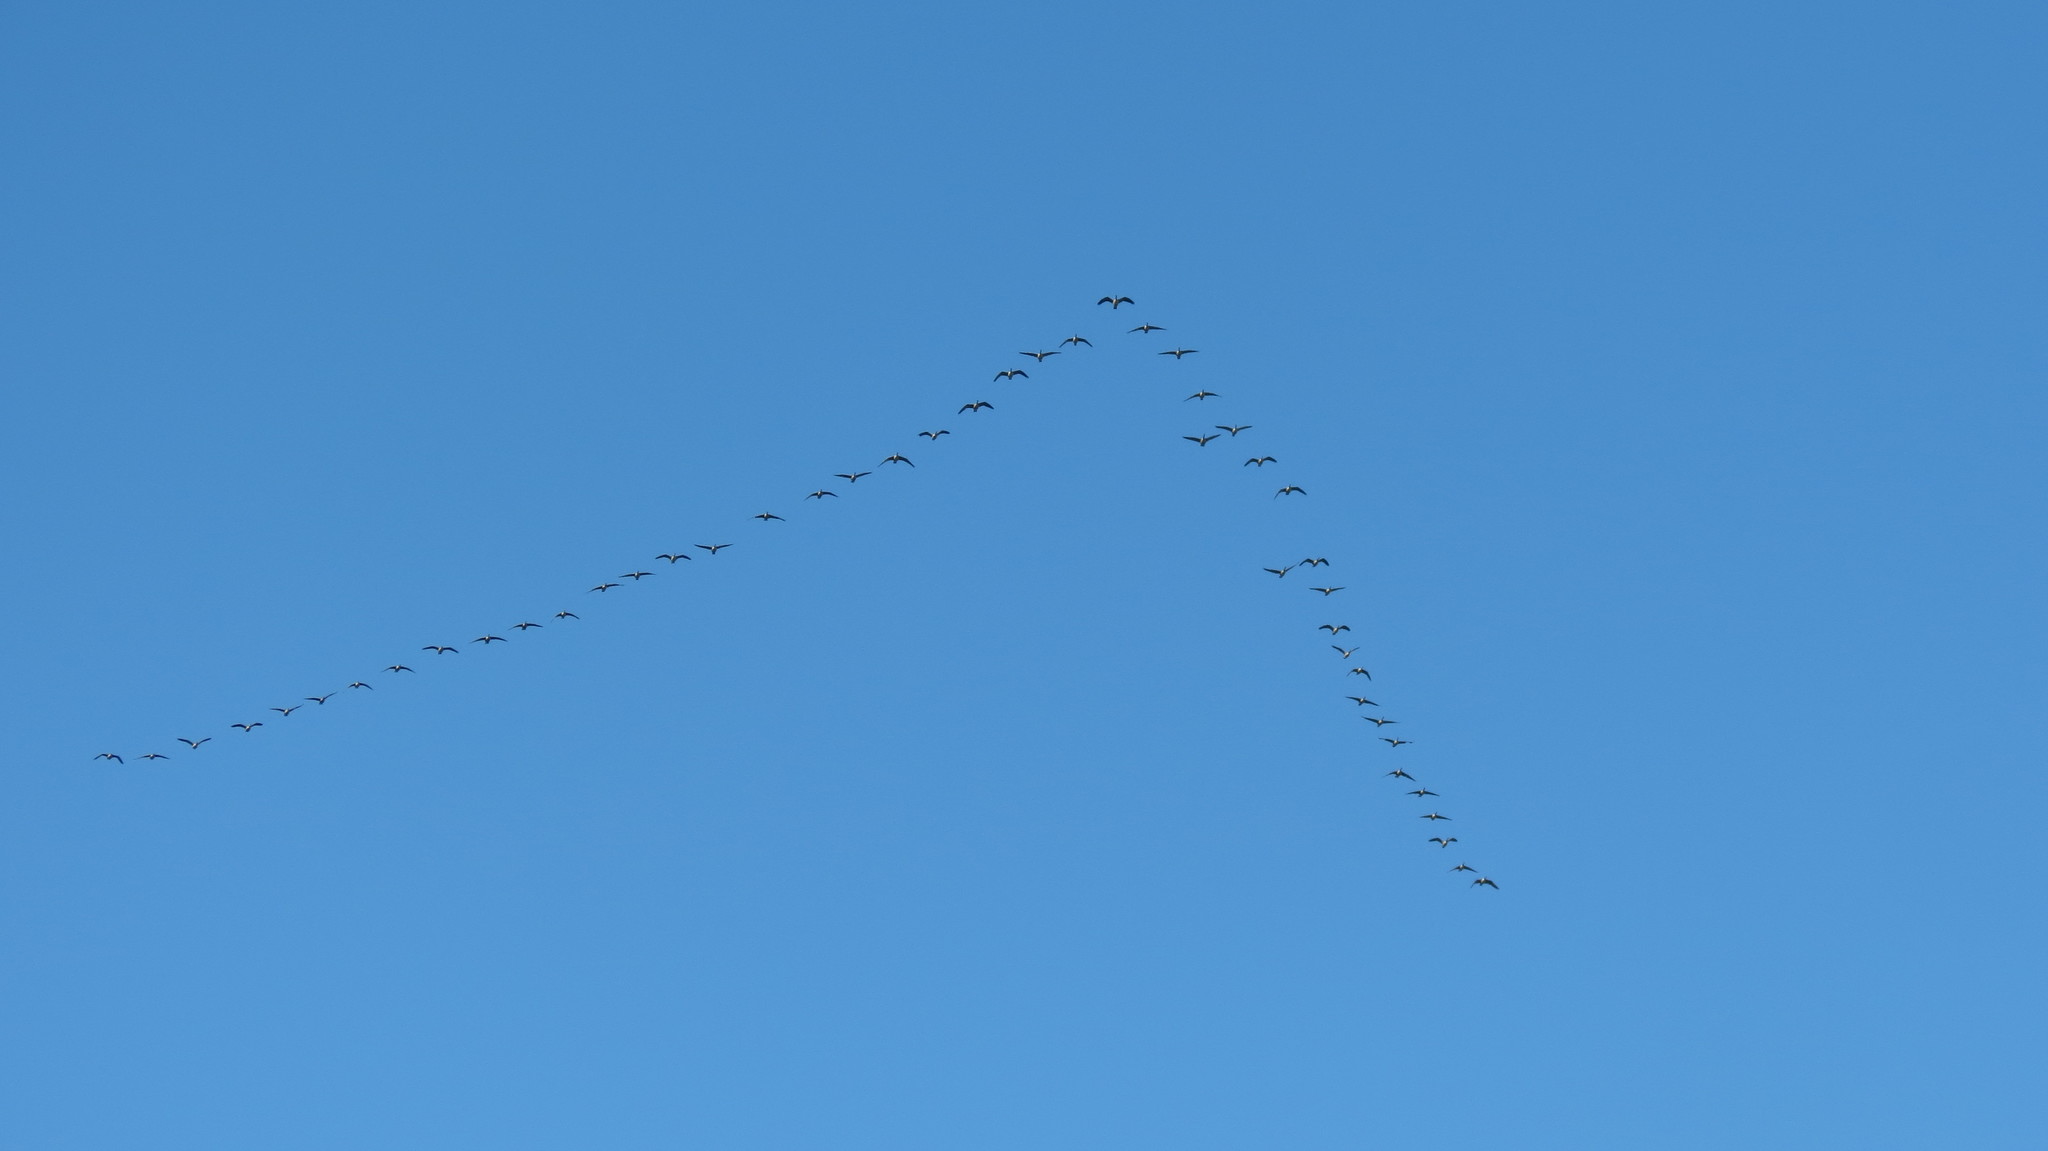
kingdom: Animalia
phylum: Chordata
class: Aves
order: Anseriformes
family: Anatidae
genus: Branta
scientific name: Branta canadensis
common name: Canada goose
